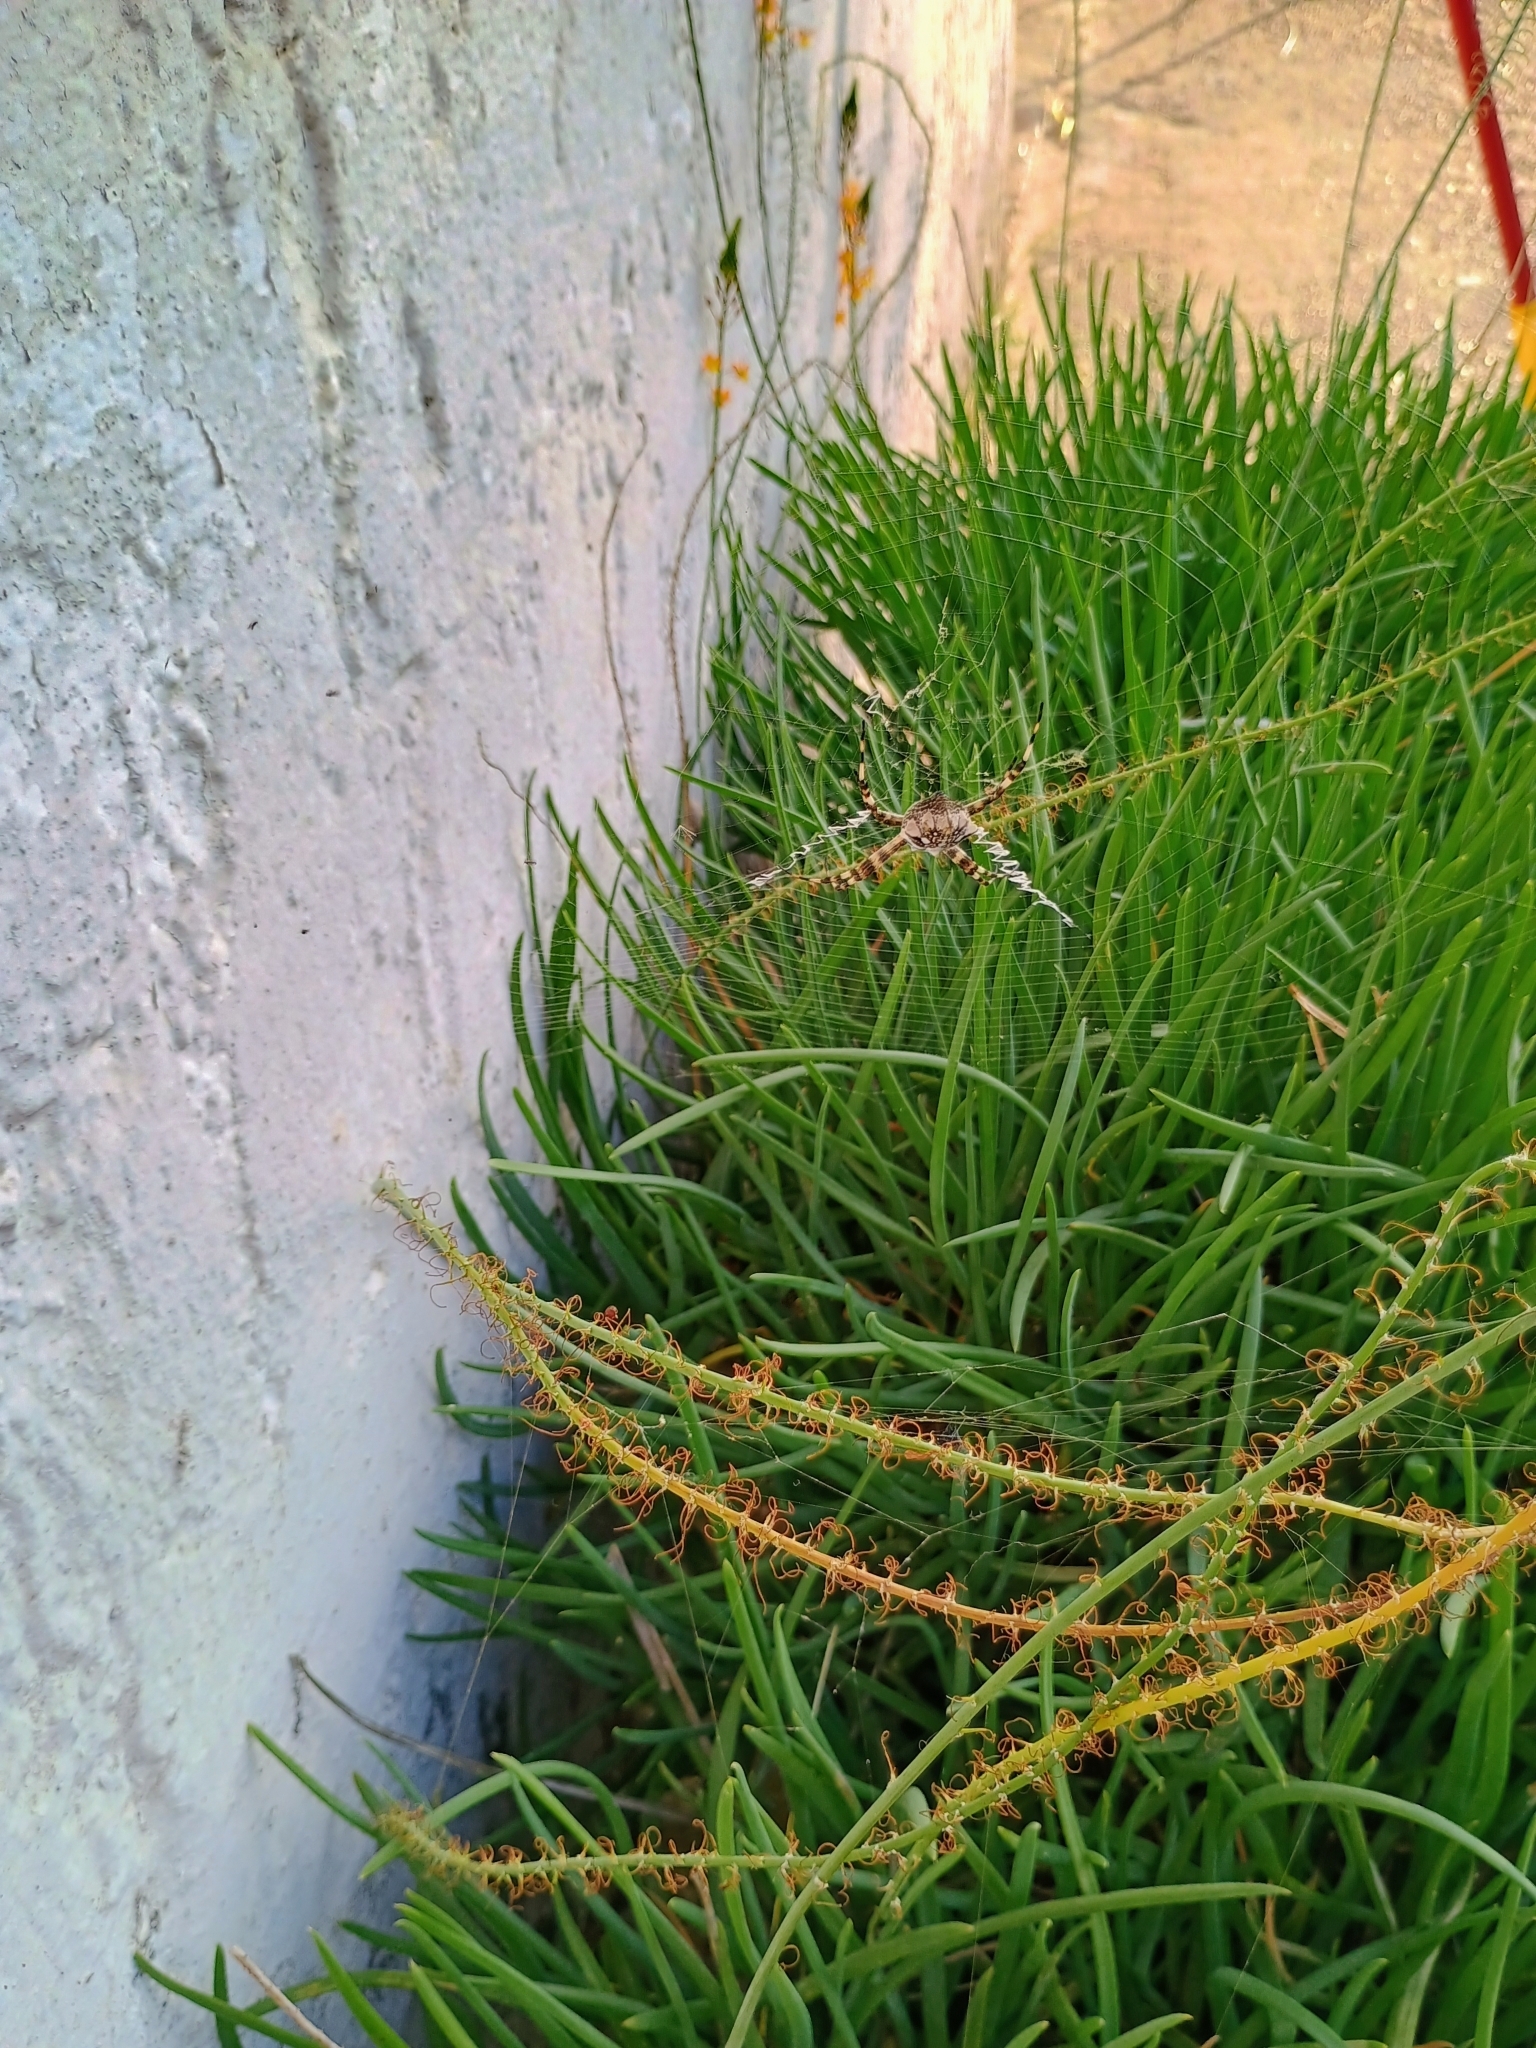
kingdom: Animalia
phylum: Arthropoda
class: Arachnida
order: Araneae
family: Araneidae
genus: Argiope
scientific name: Argiope argentata
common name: Orb weavers
